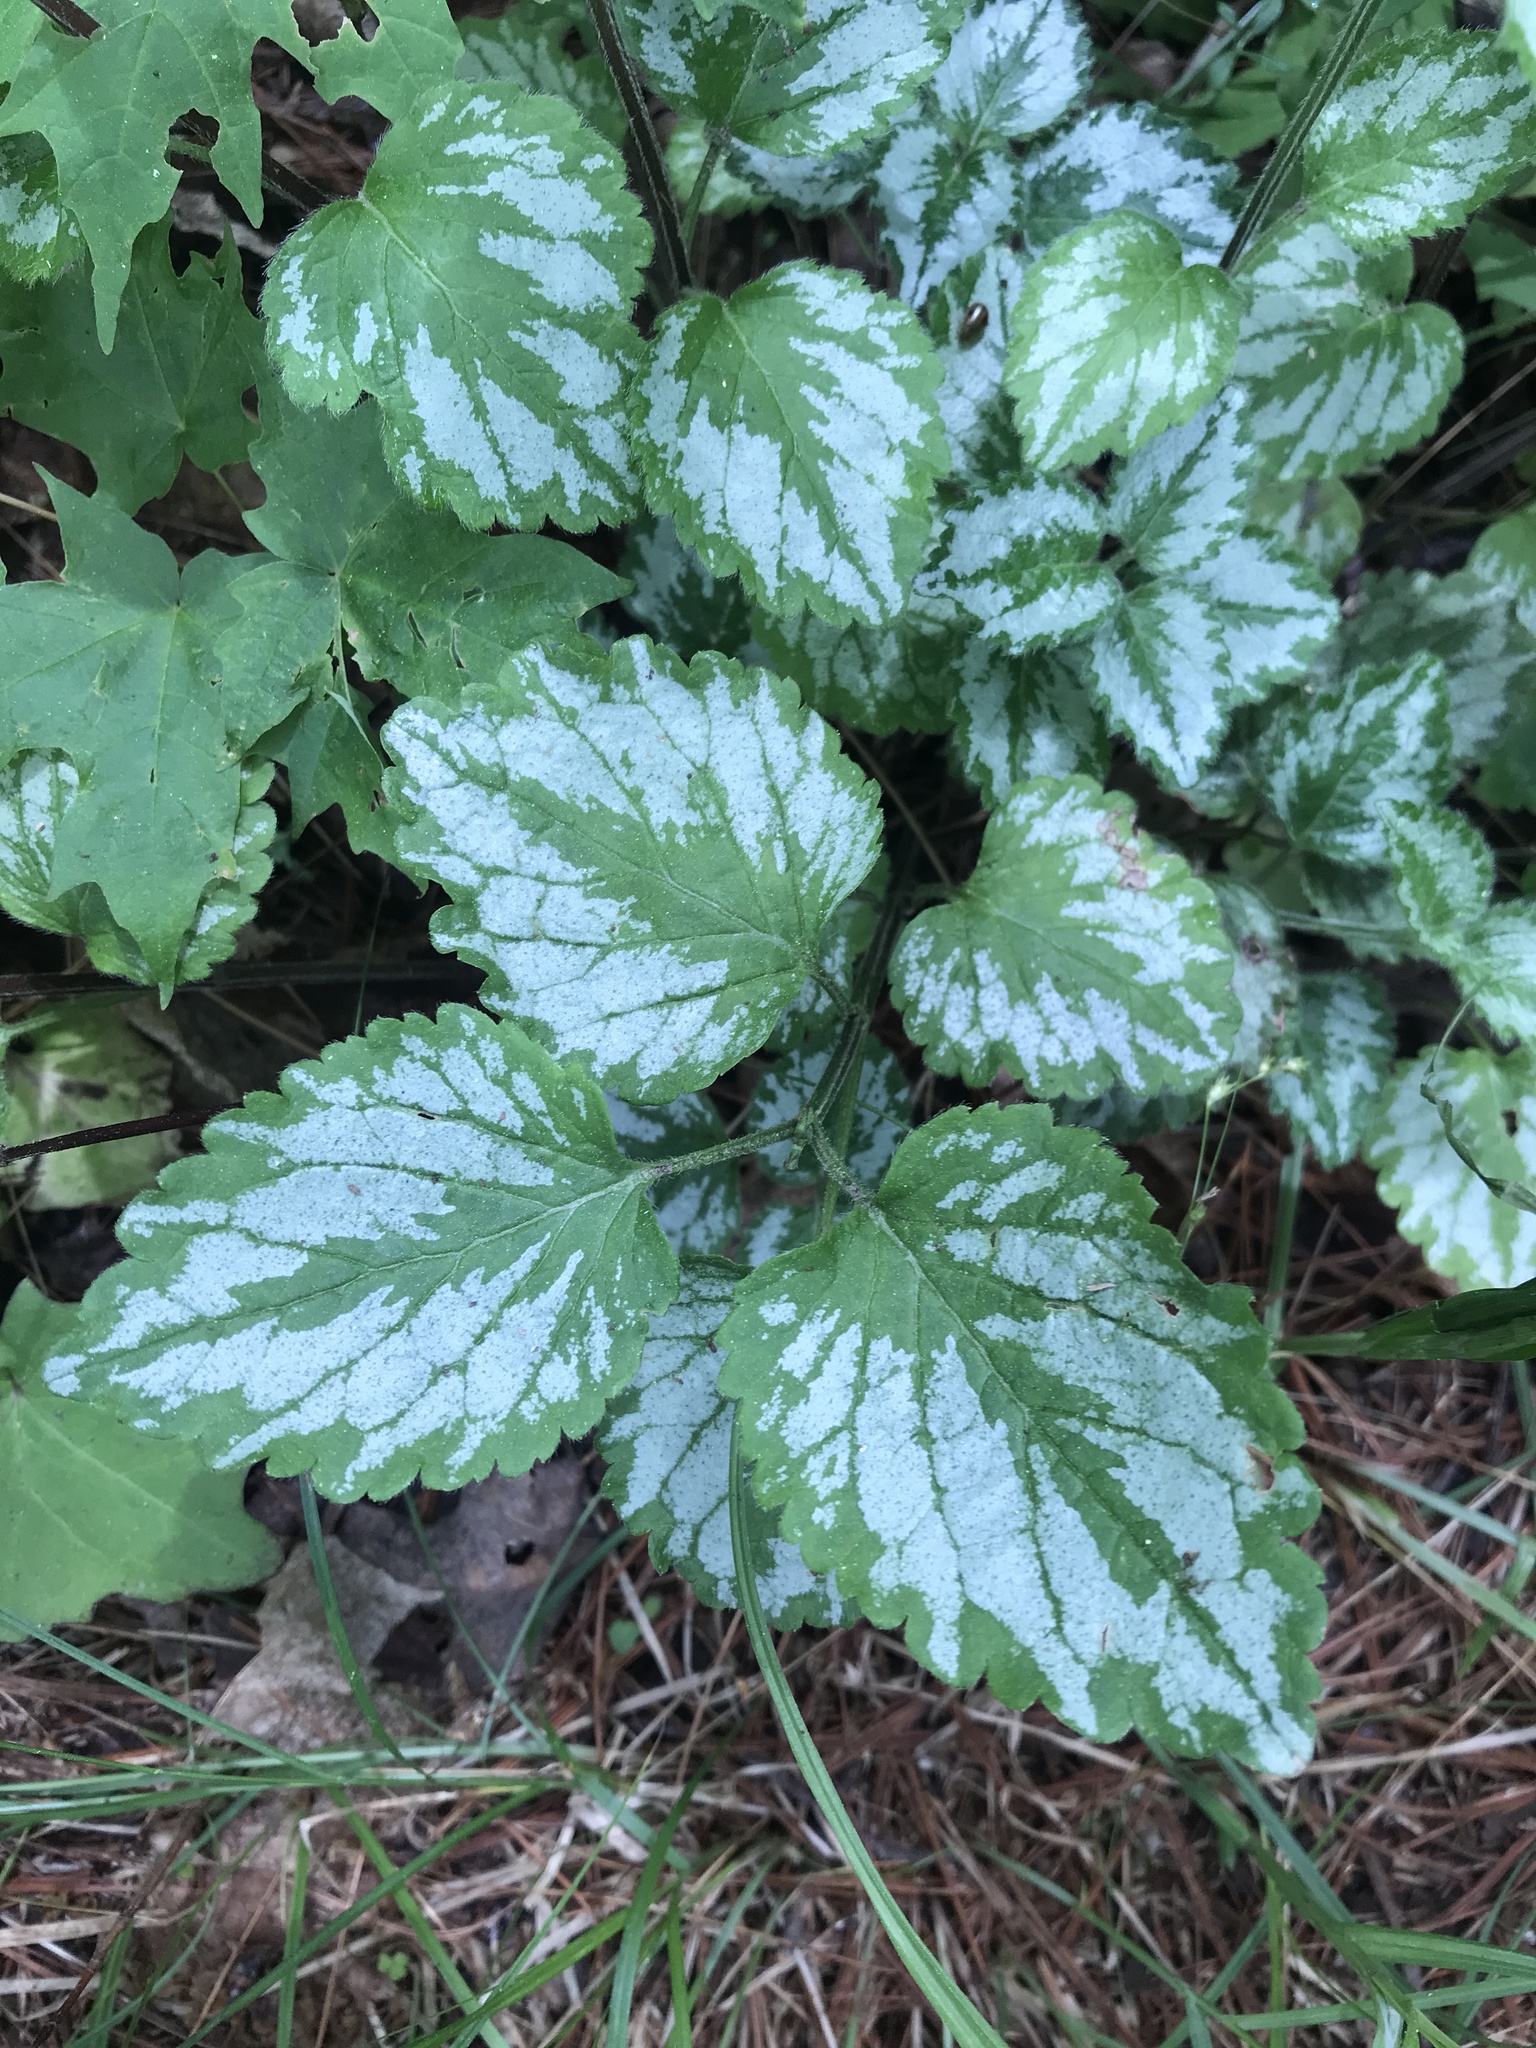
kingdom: Plantae
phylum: Tracheophyta
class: Magnoliopsida
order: Lamiales
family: Lamiaceae
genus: Lamium
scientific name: Lamium galeobdolon
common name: Yellow archangel
